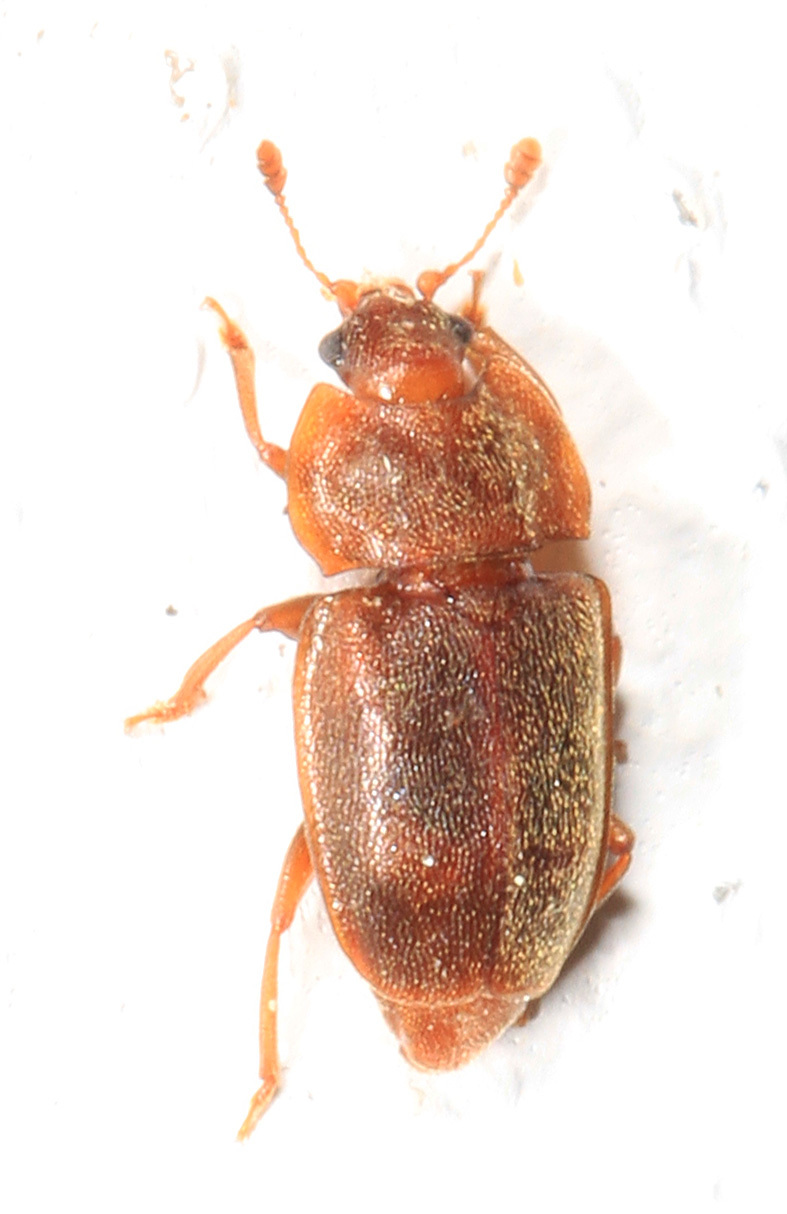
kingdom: Animalia
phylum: Arthropoda
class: Insecta
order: Coleoptera
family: Nitidulidae
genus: Epuraea
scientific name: Epuraea rufa
